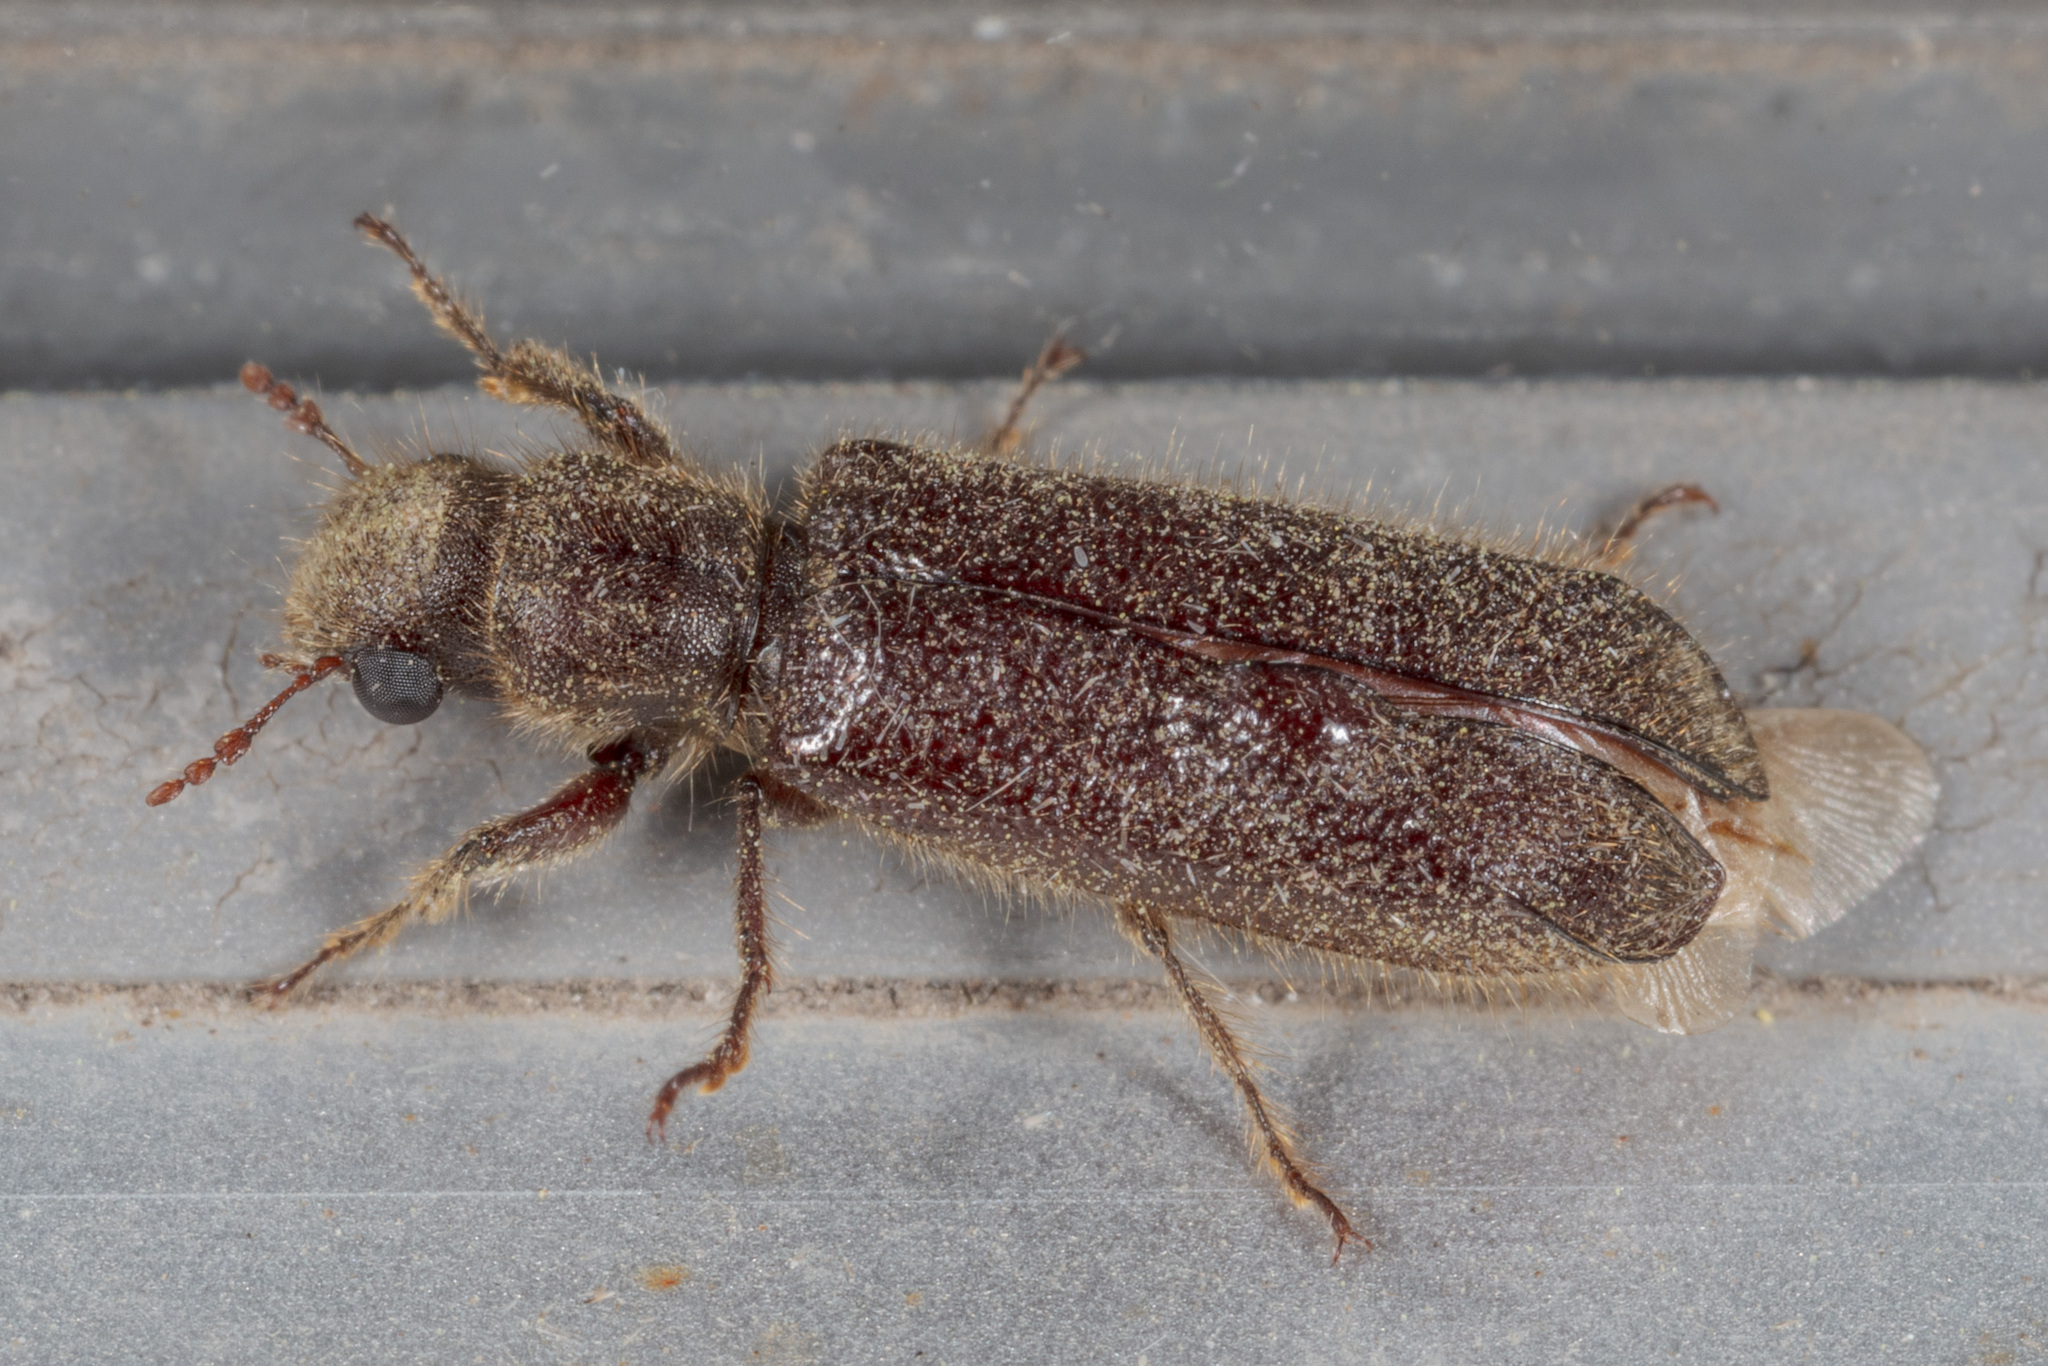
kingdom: Animalia
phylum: Arthropoda
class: Insecta
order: Coleoptera
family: Bostrichidae
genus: Melalgus
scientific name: Melalgus plicatus
